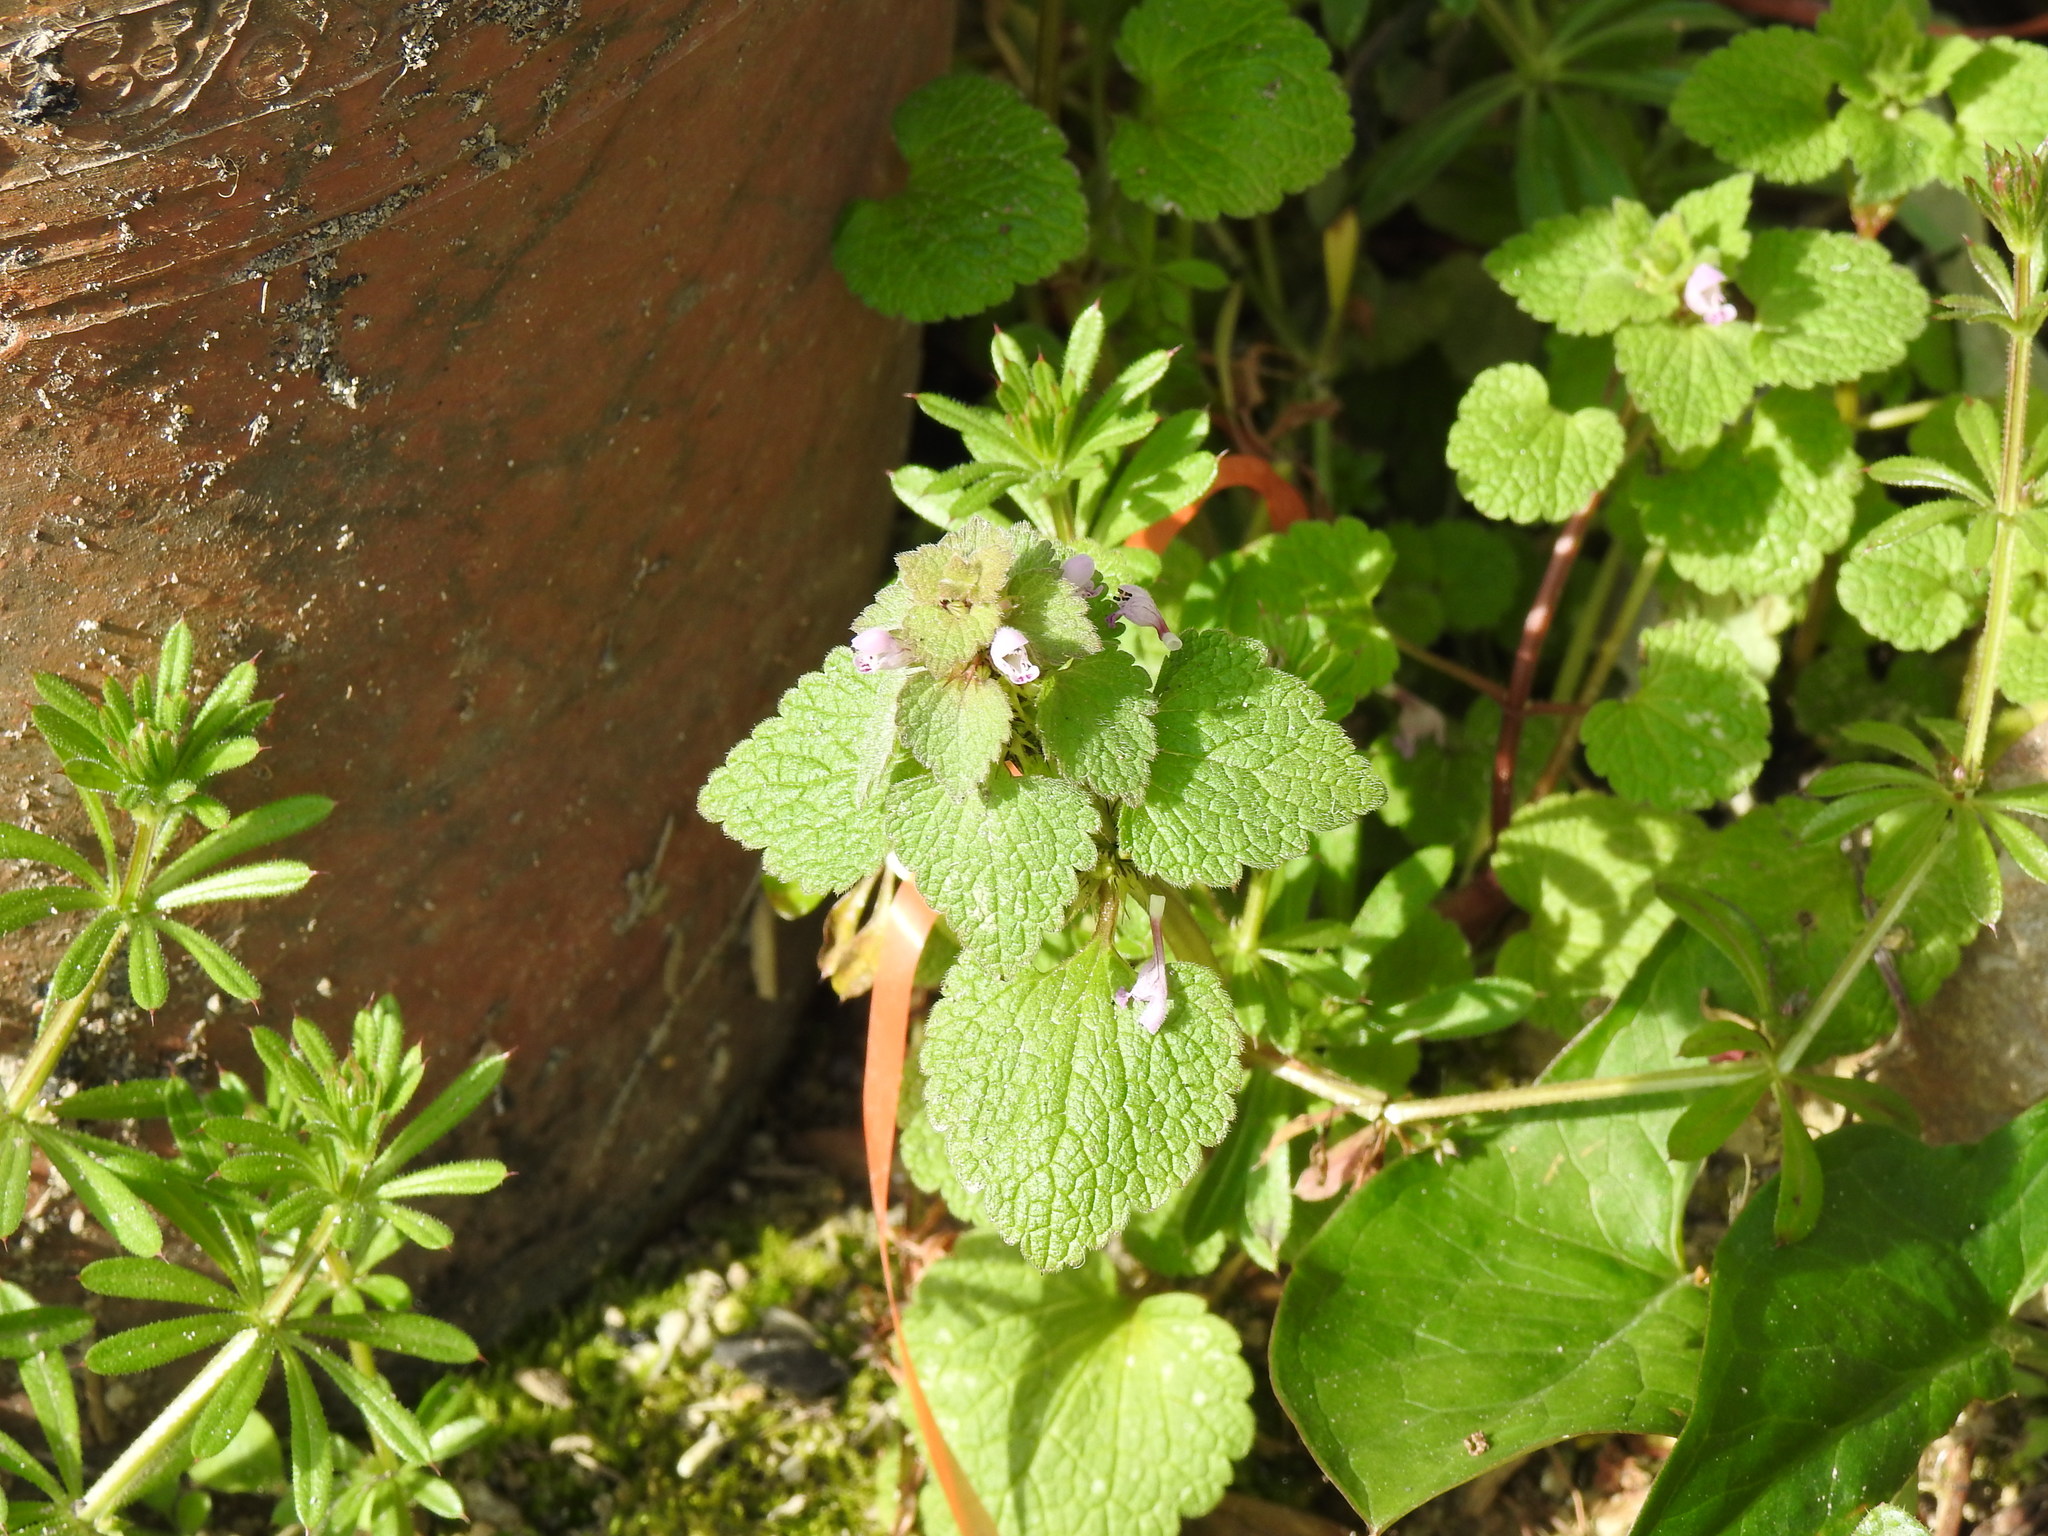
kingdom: Plantae
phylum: Tracheophyta
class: Magnoliopsida
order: Lamiales
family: Lamiaceae
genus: Lamium
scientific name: Lamium purpureum
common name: Red dead-nettle
